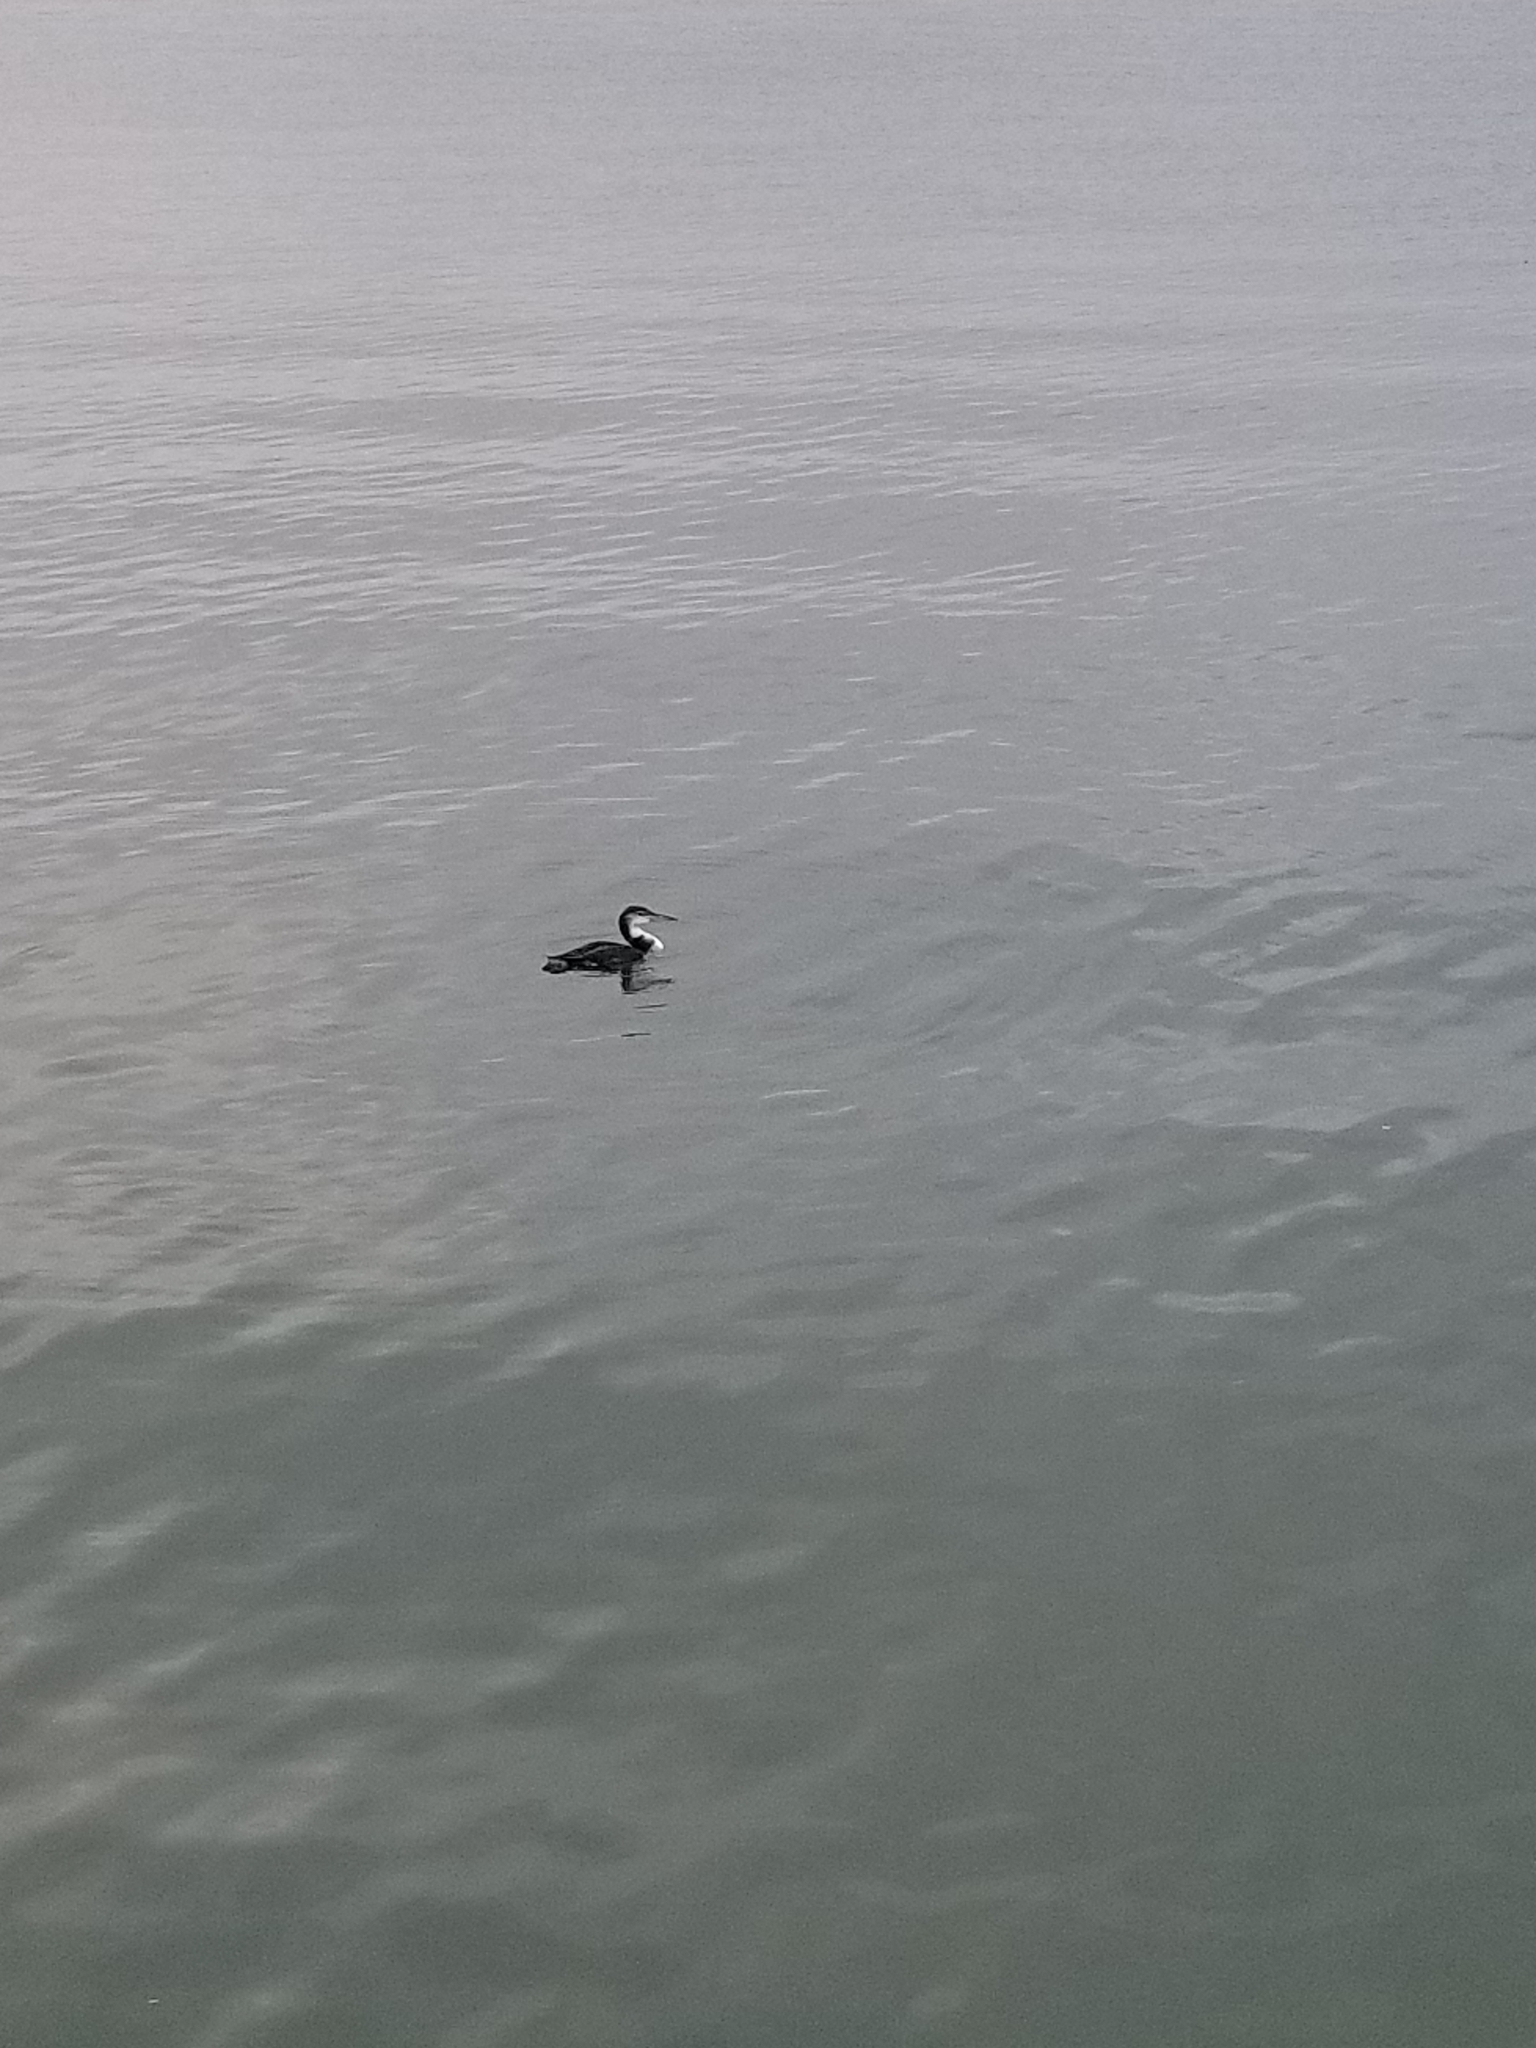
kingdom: Animalia
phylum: Chordata
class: Aves
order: Gaviiformes
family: Gaviidae
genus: Gavia
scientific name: Gavia immer
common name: Common loon
